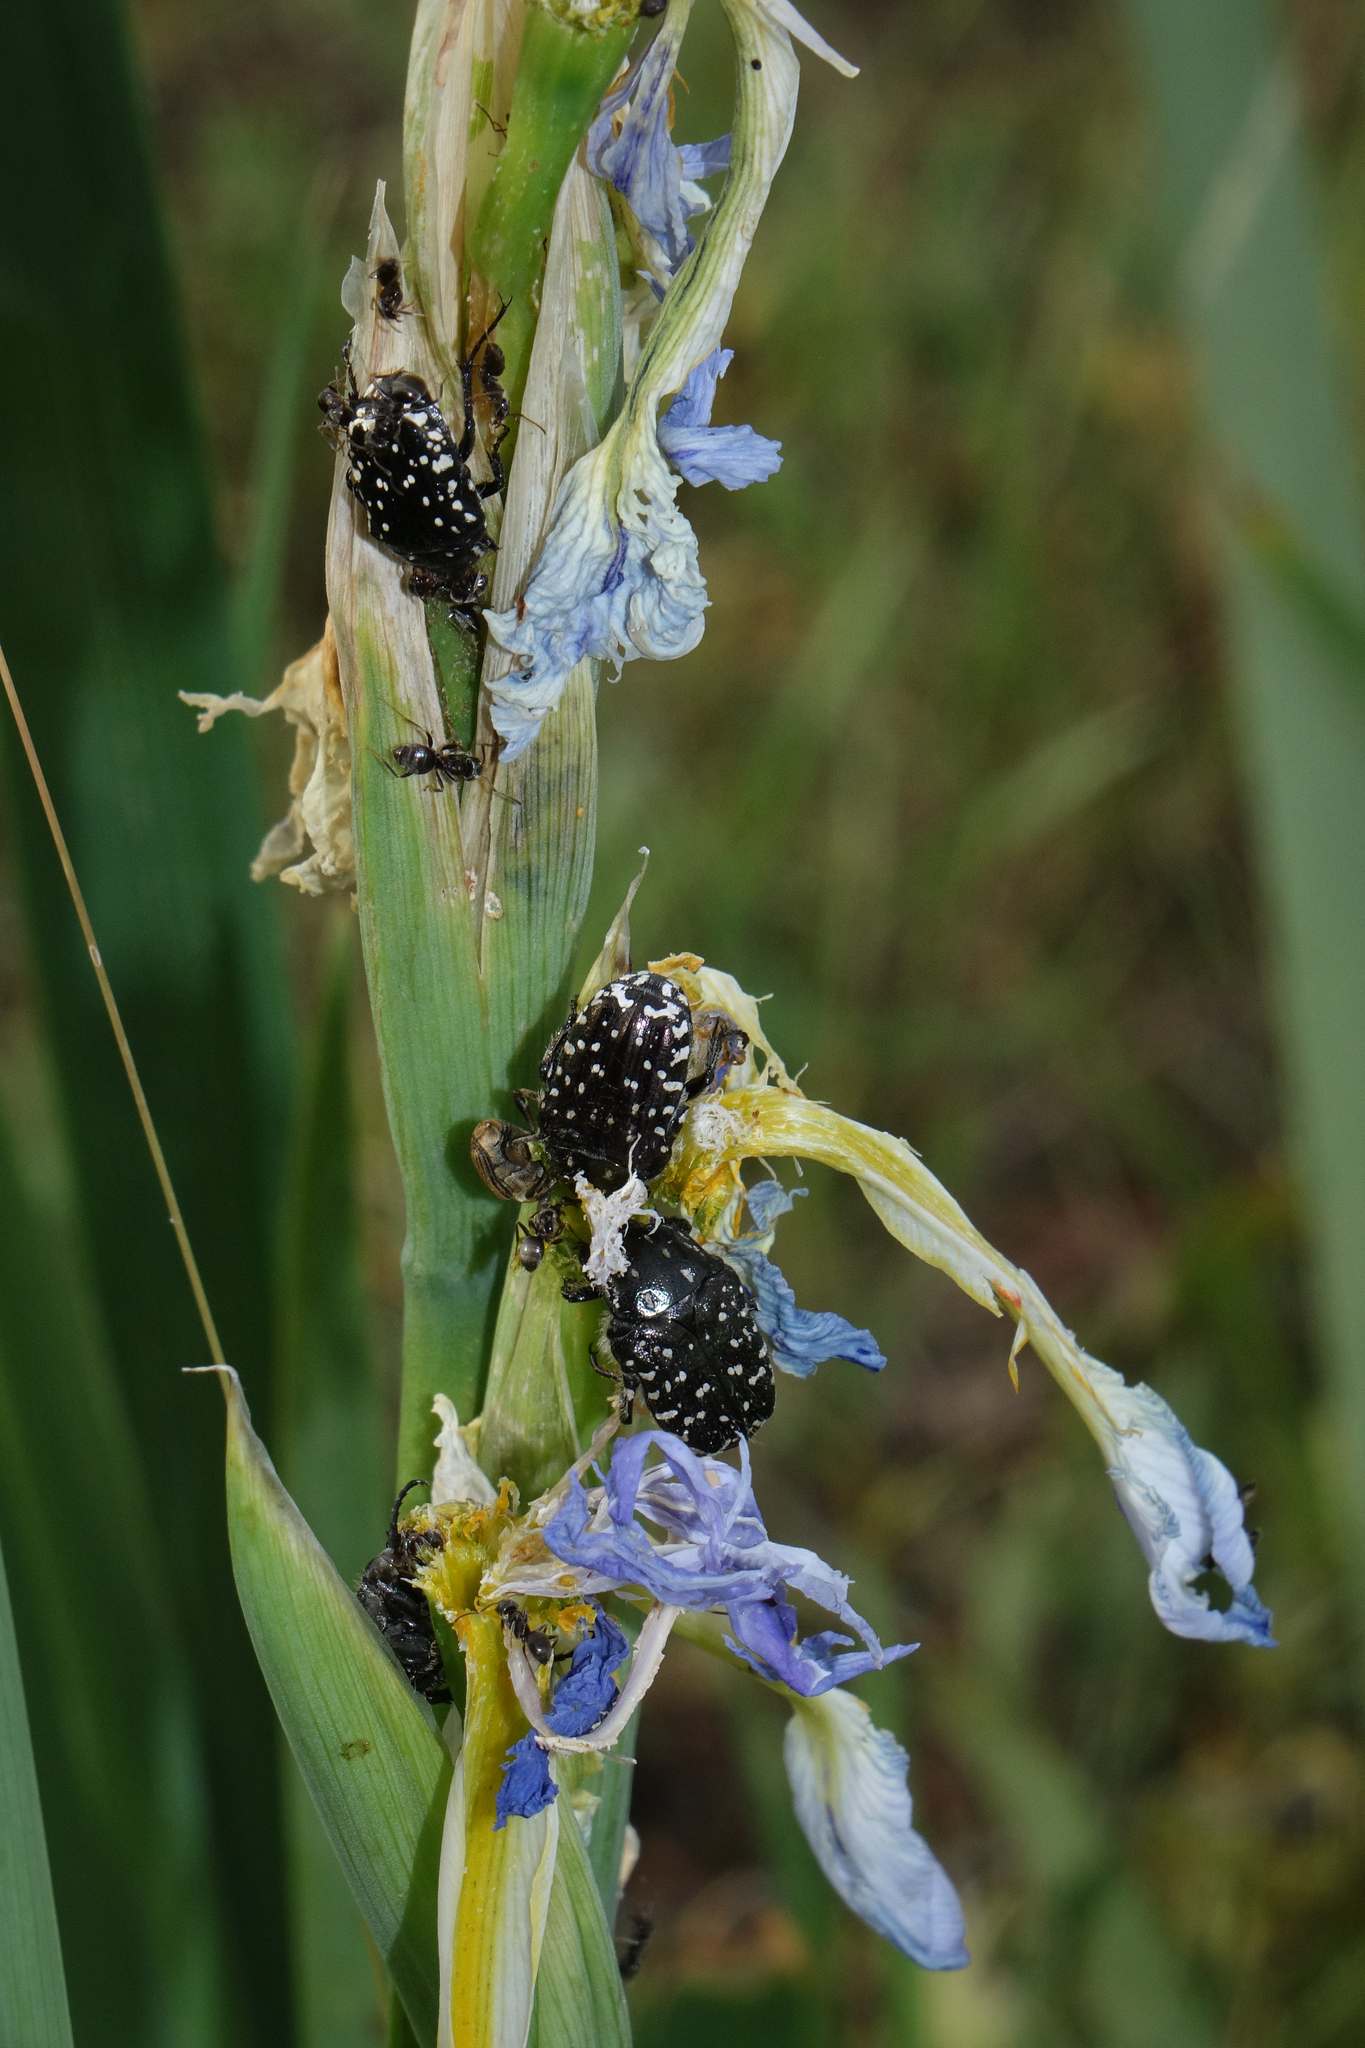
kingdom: Animalia
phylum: Arthropoda
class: Insecta
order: Coleoptera
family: Scarabaeidae
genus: Oxythyrea
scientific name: Oxythyrea funesta
